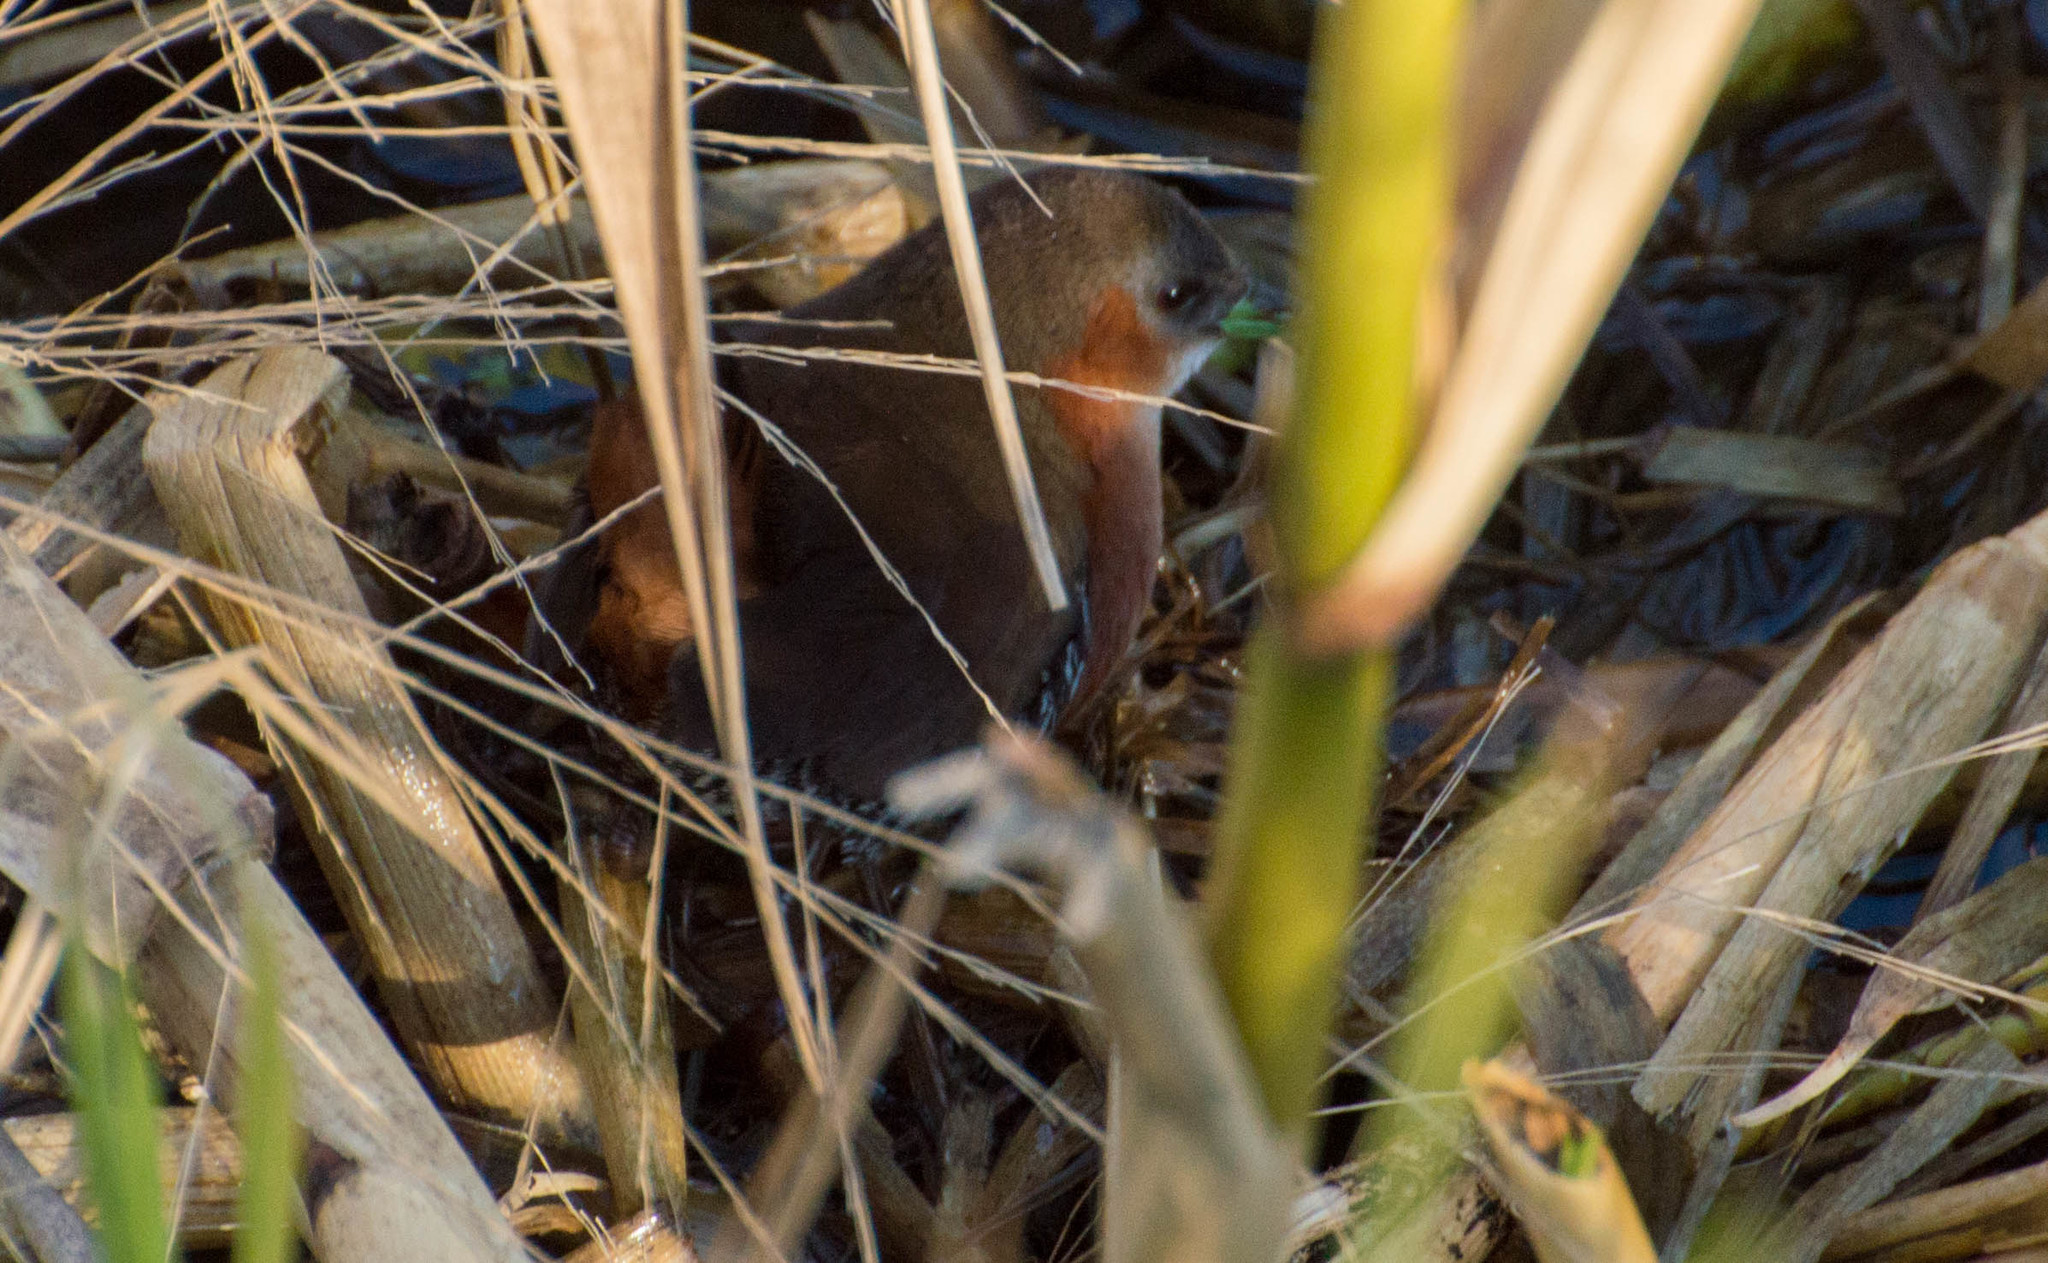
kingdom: Animalia
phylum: Chordata
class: Aves
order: Gruiformes
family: Rallidae
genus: Laterallus
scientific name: Laterallus melanophaius
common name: Rufous-sided crake
